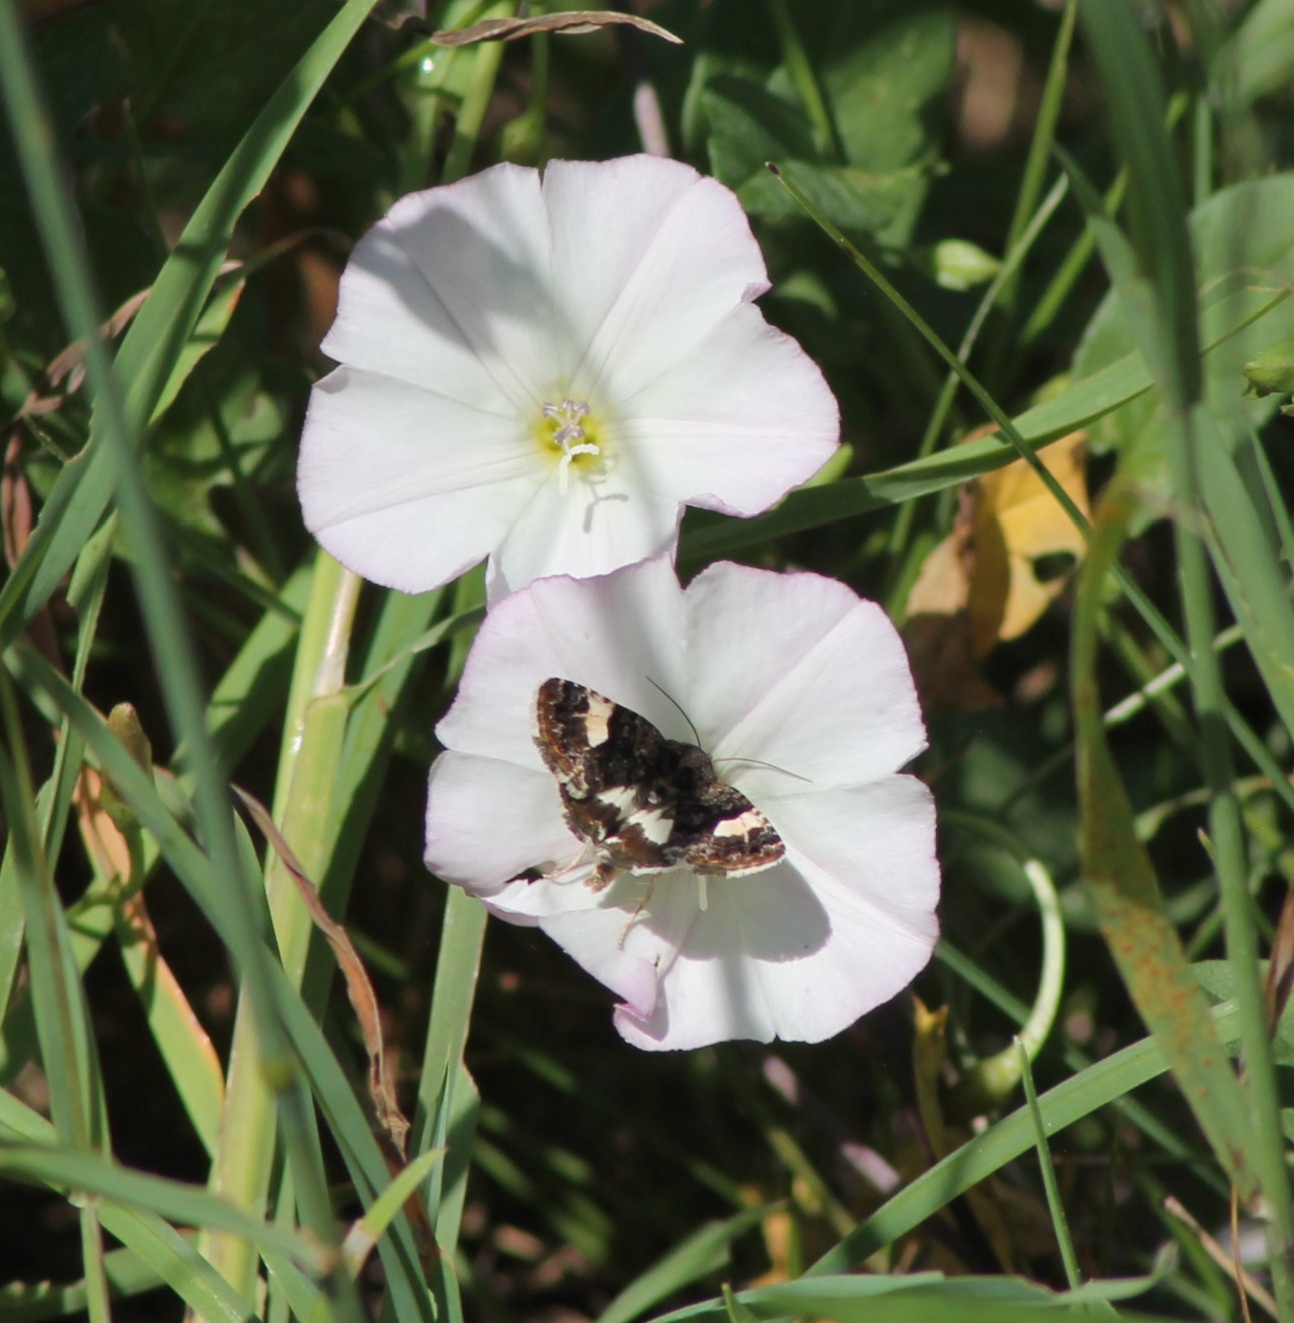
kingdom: Animalia
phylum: Arthropoda
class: Insecta
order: Lepidoptera
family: Erebidae
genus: Tyta
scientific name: Tyta luctuosa
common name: Four-spotted
